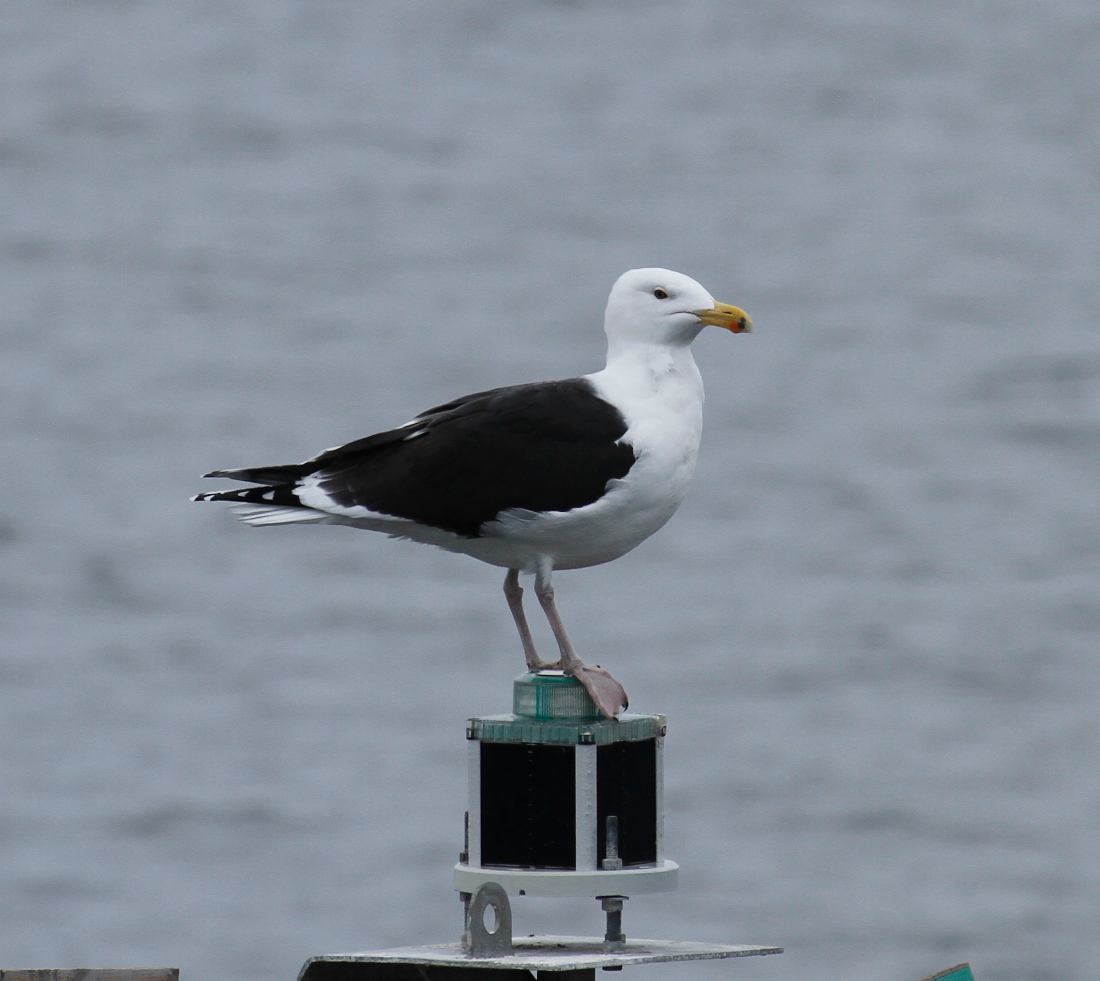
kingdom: Animalia
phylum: Chordata
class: Aves
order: Charadriiformes
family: Laridae
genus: Larus
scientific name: Larus marinus
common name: Great black-backed gull
